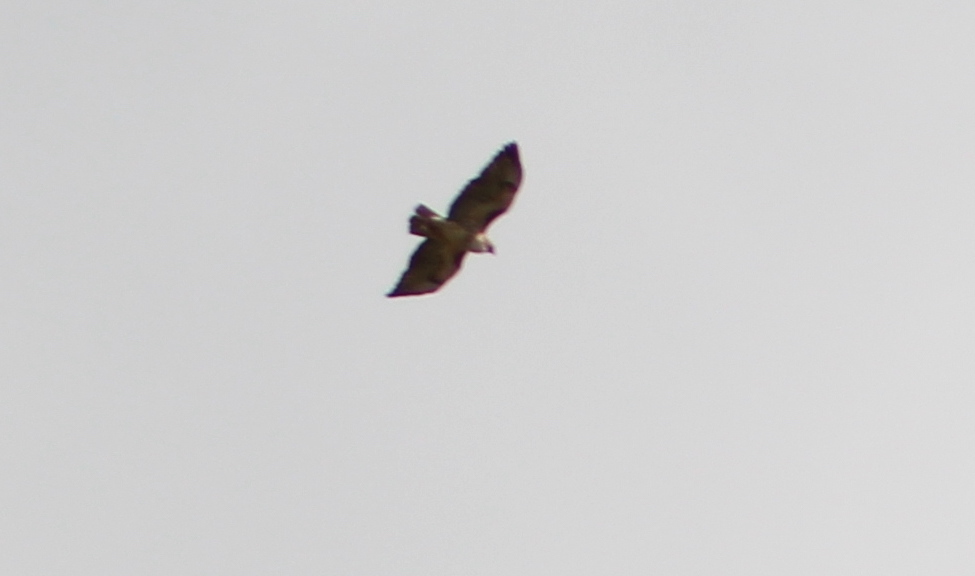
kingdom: Animalia
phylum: Chordata
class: Aves
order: Accipitriformes
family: Accipitridae
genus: Buteo
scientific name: Buteo jamaicensis
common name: Red-tailed hawk
